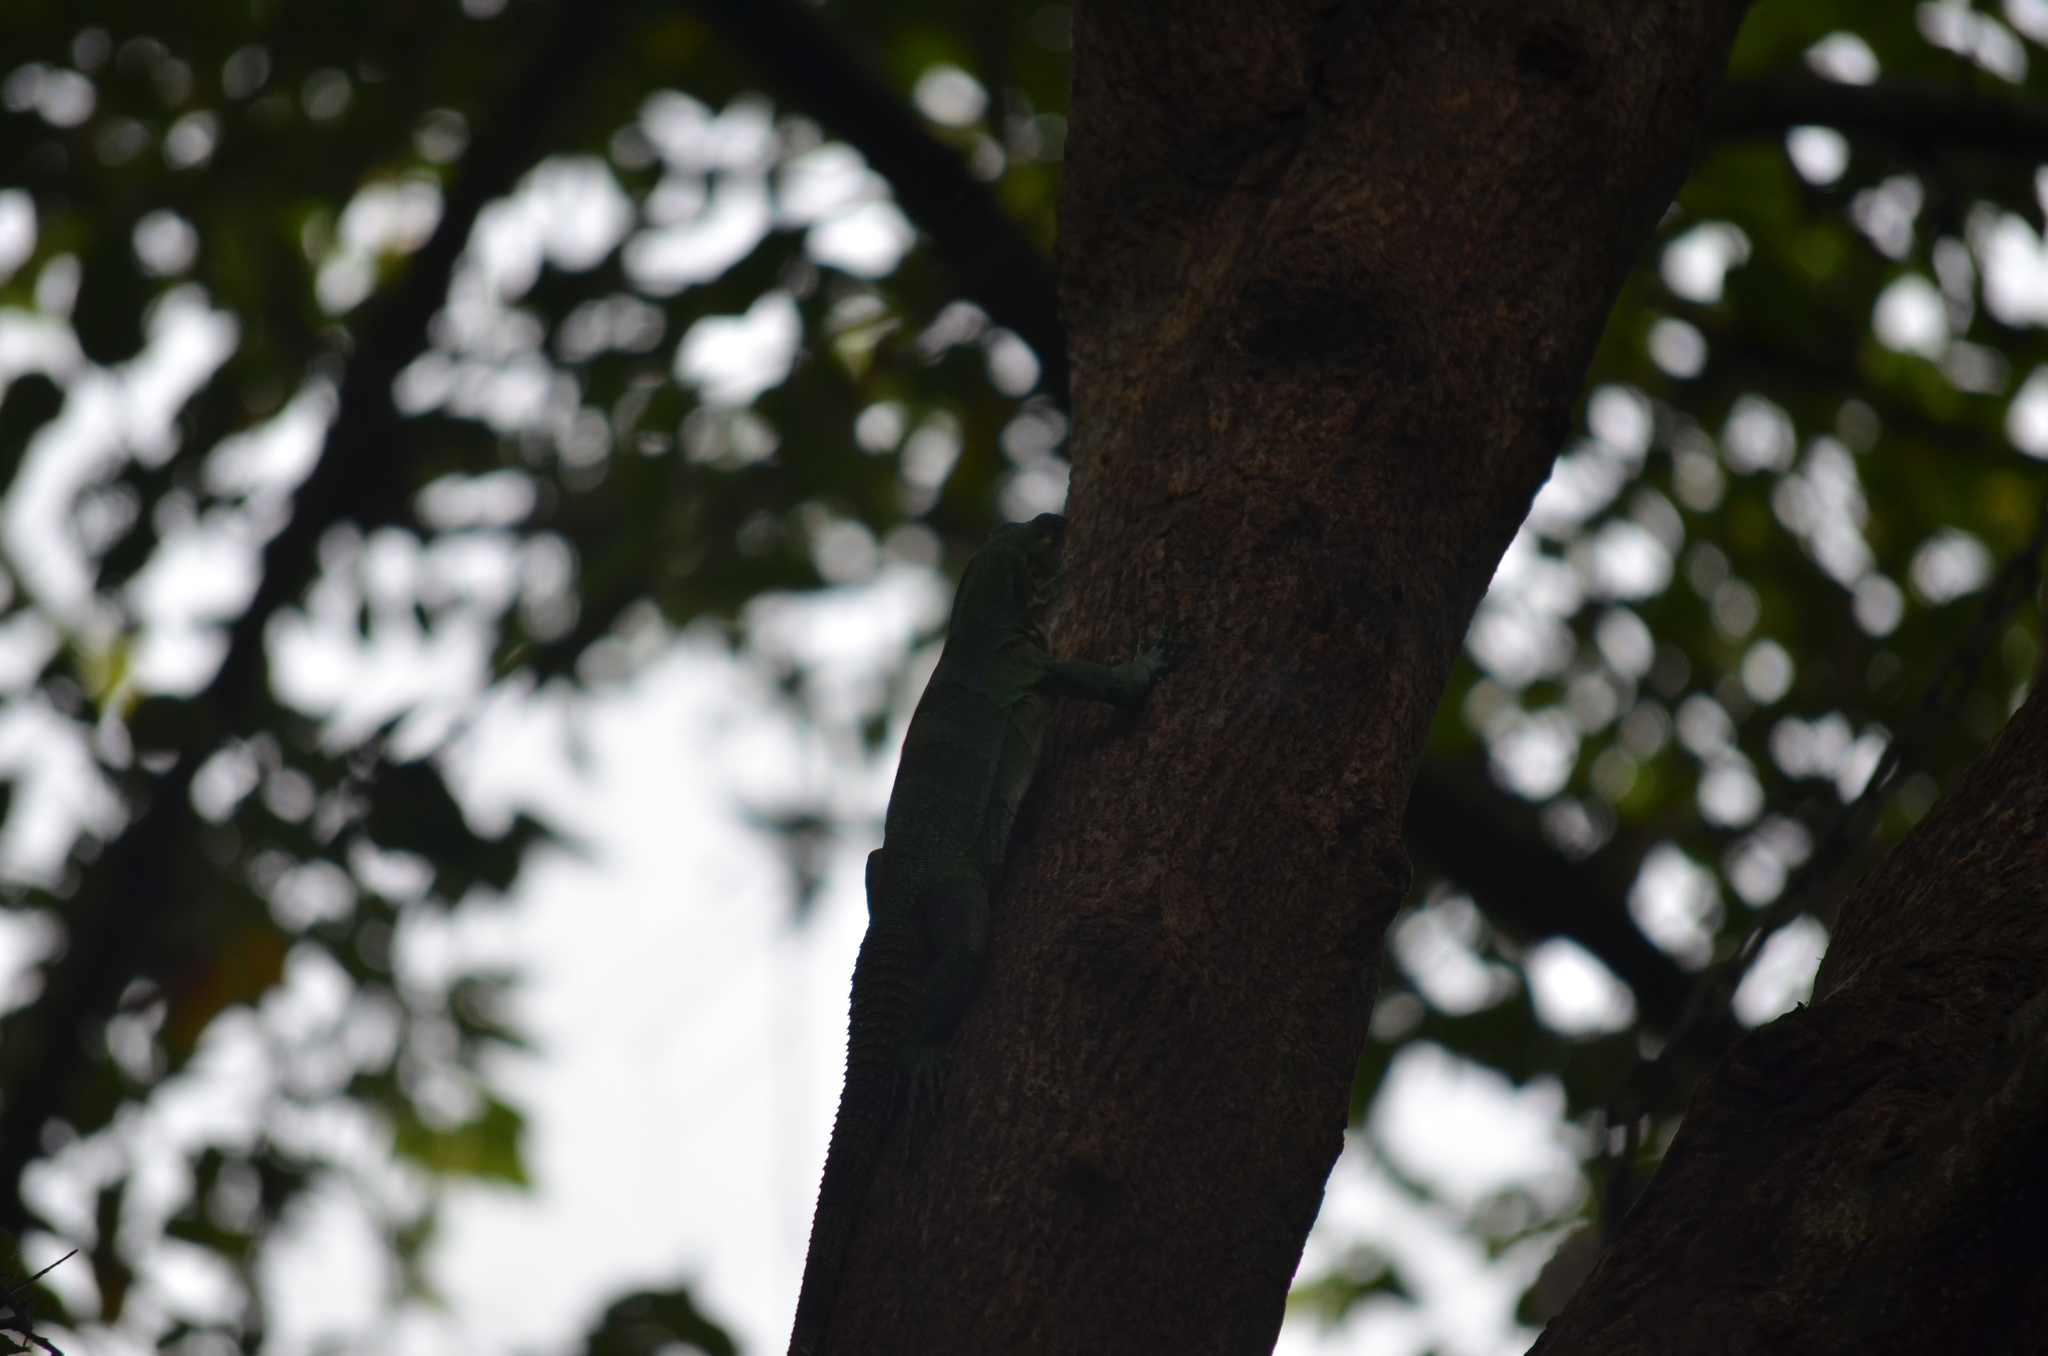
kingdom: Animalia
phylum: Chordata
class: Squamata
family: Iguanidae
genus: Ctenosaura
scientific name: Ctenosaura similis
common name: Black spiny-tailed iguana
